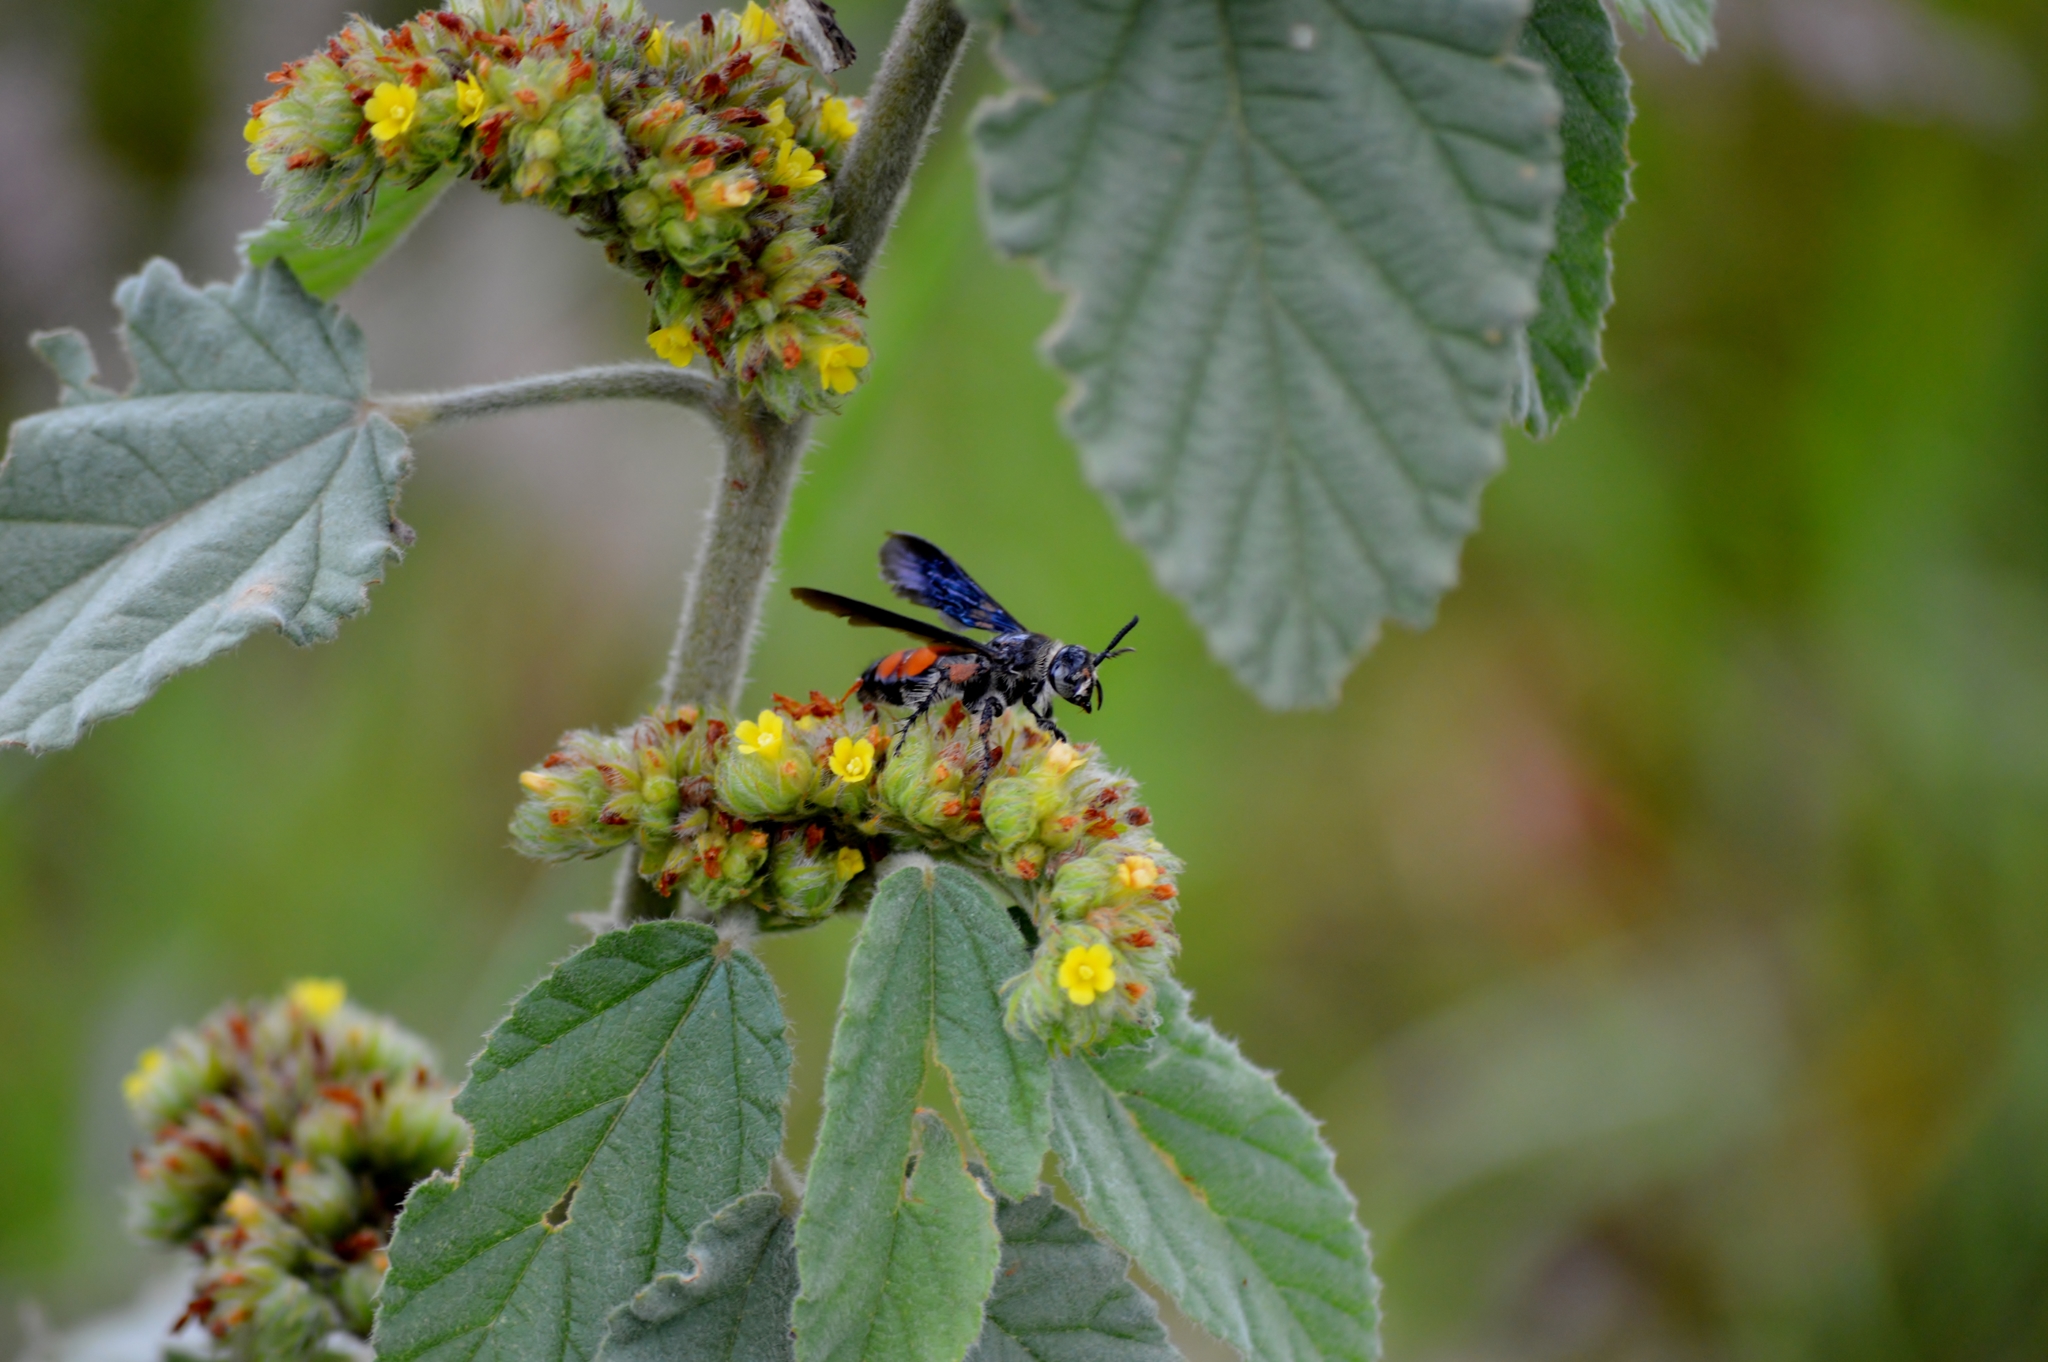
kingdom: Animalia
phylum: Arthropoda
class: Insecta
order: Hymenoptera
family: Scoliidae
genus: Dielis
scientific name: Dielis dorsata
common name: Scoliid wasp
